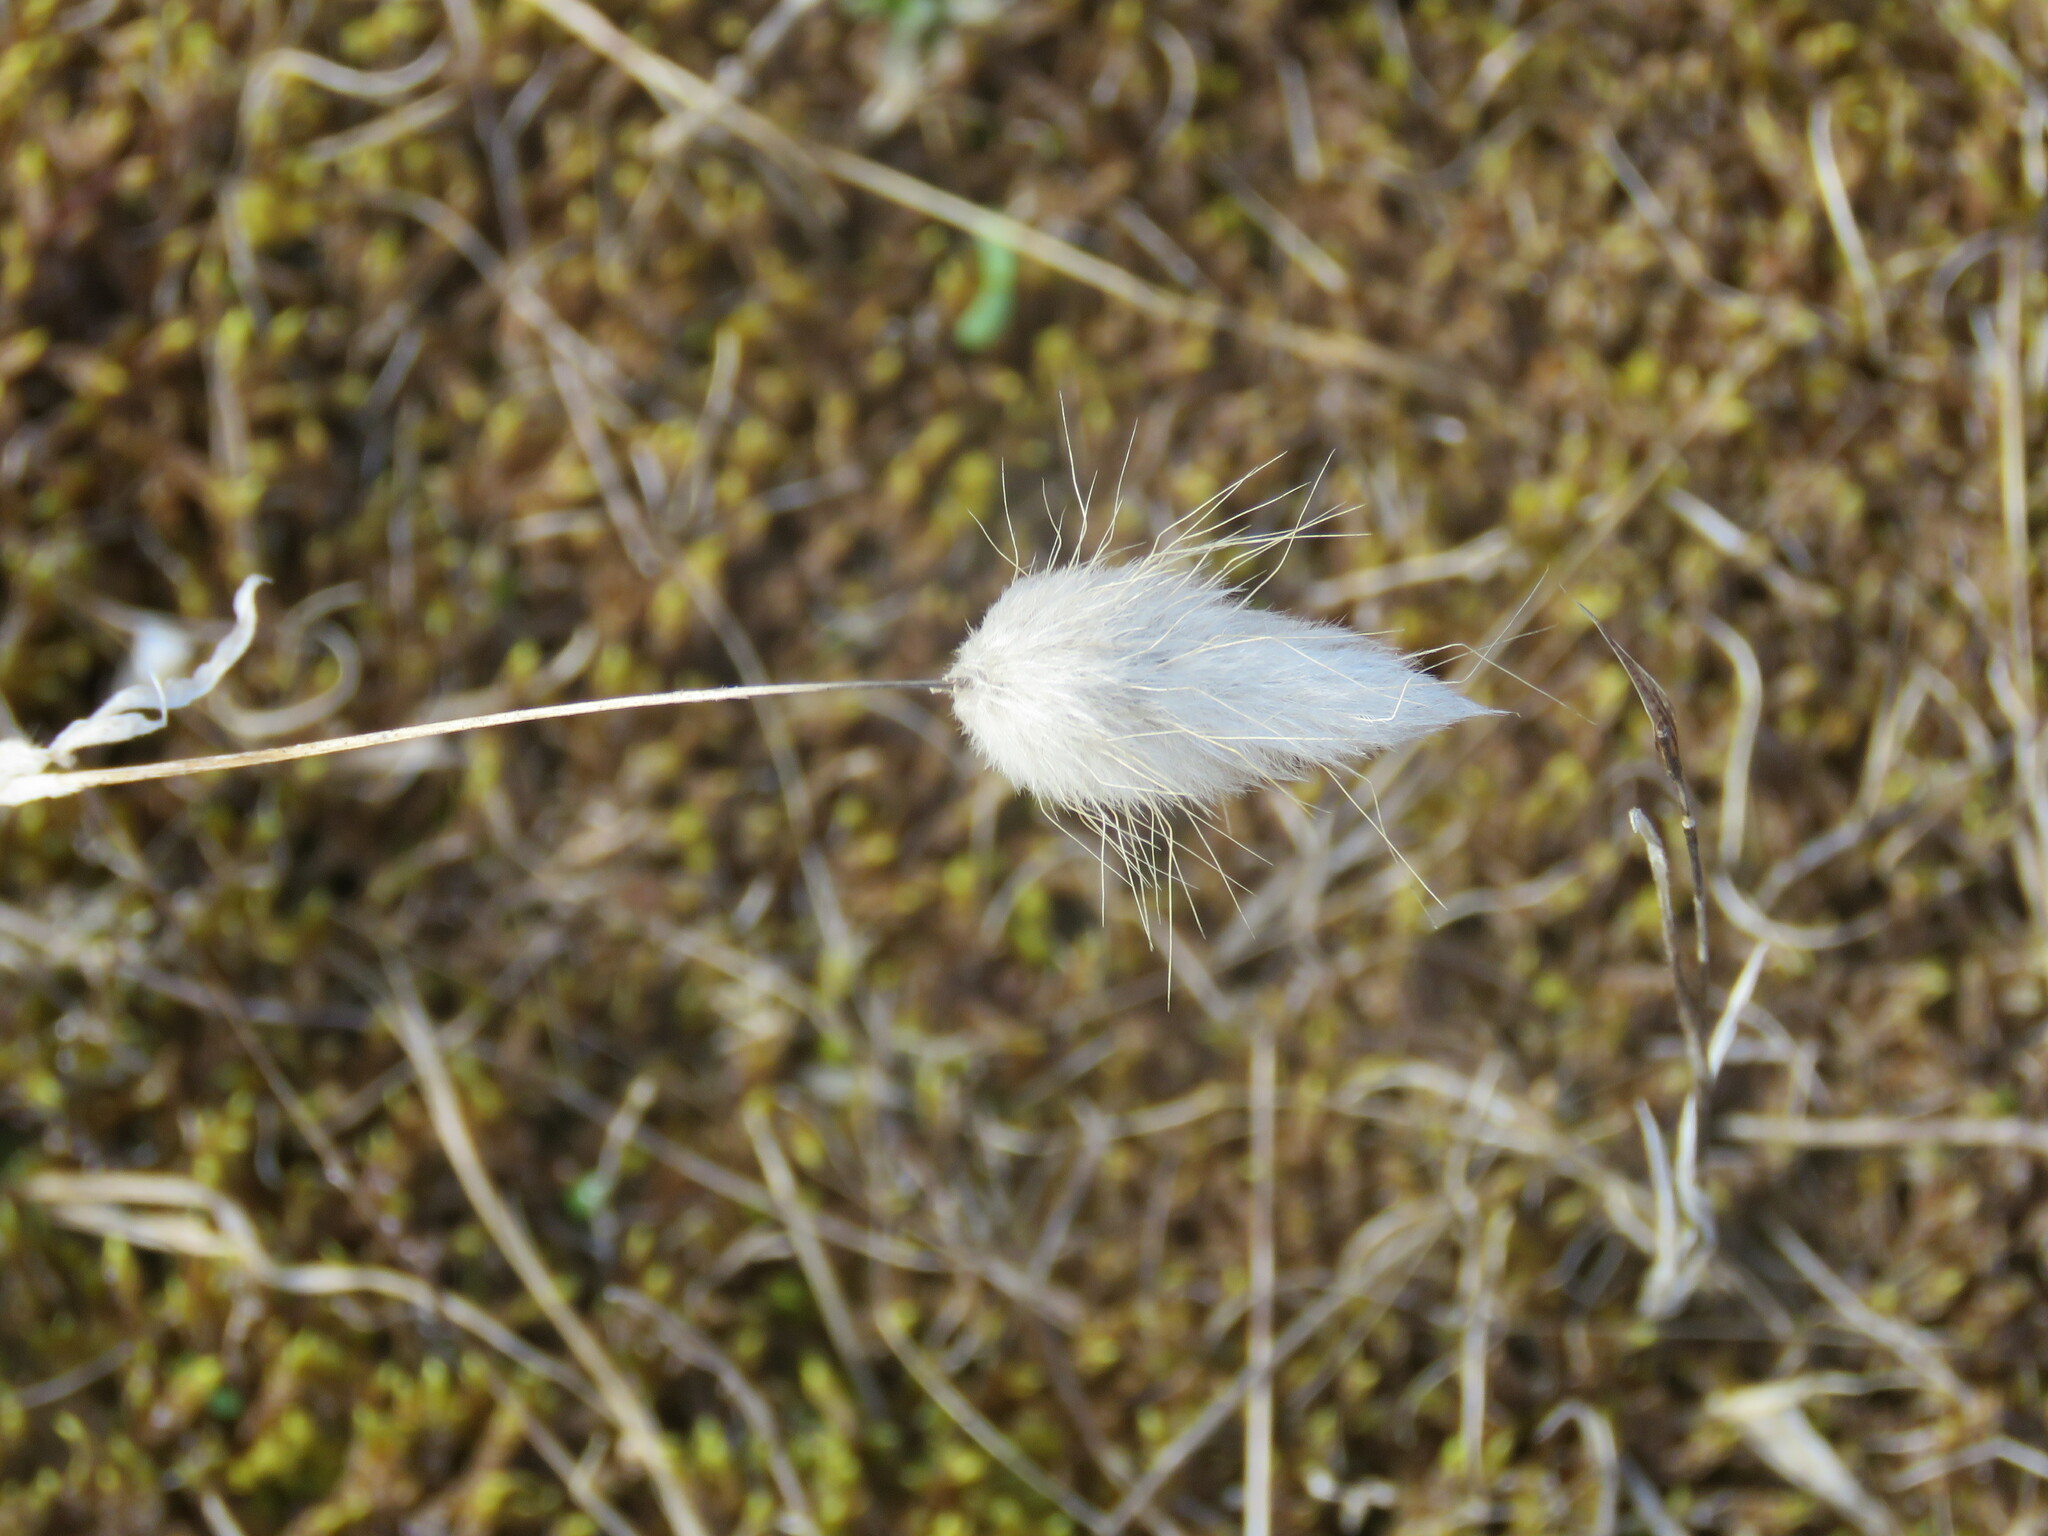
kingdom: Plantae
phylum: Tracheophyta
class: Liliopsida
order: Poales
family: Poaceae
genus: Lagurus
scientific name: Lagurus ovatus
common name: Hare's-tail
